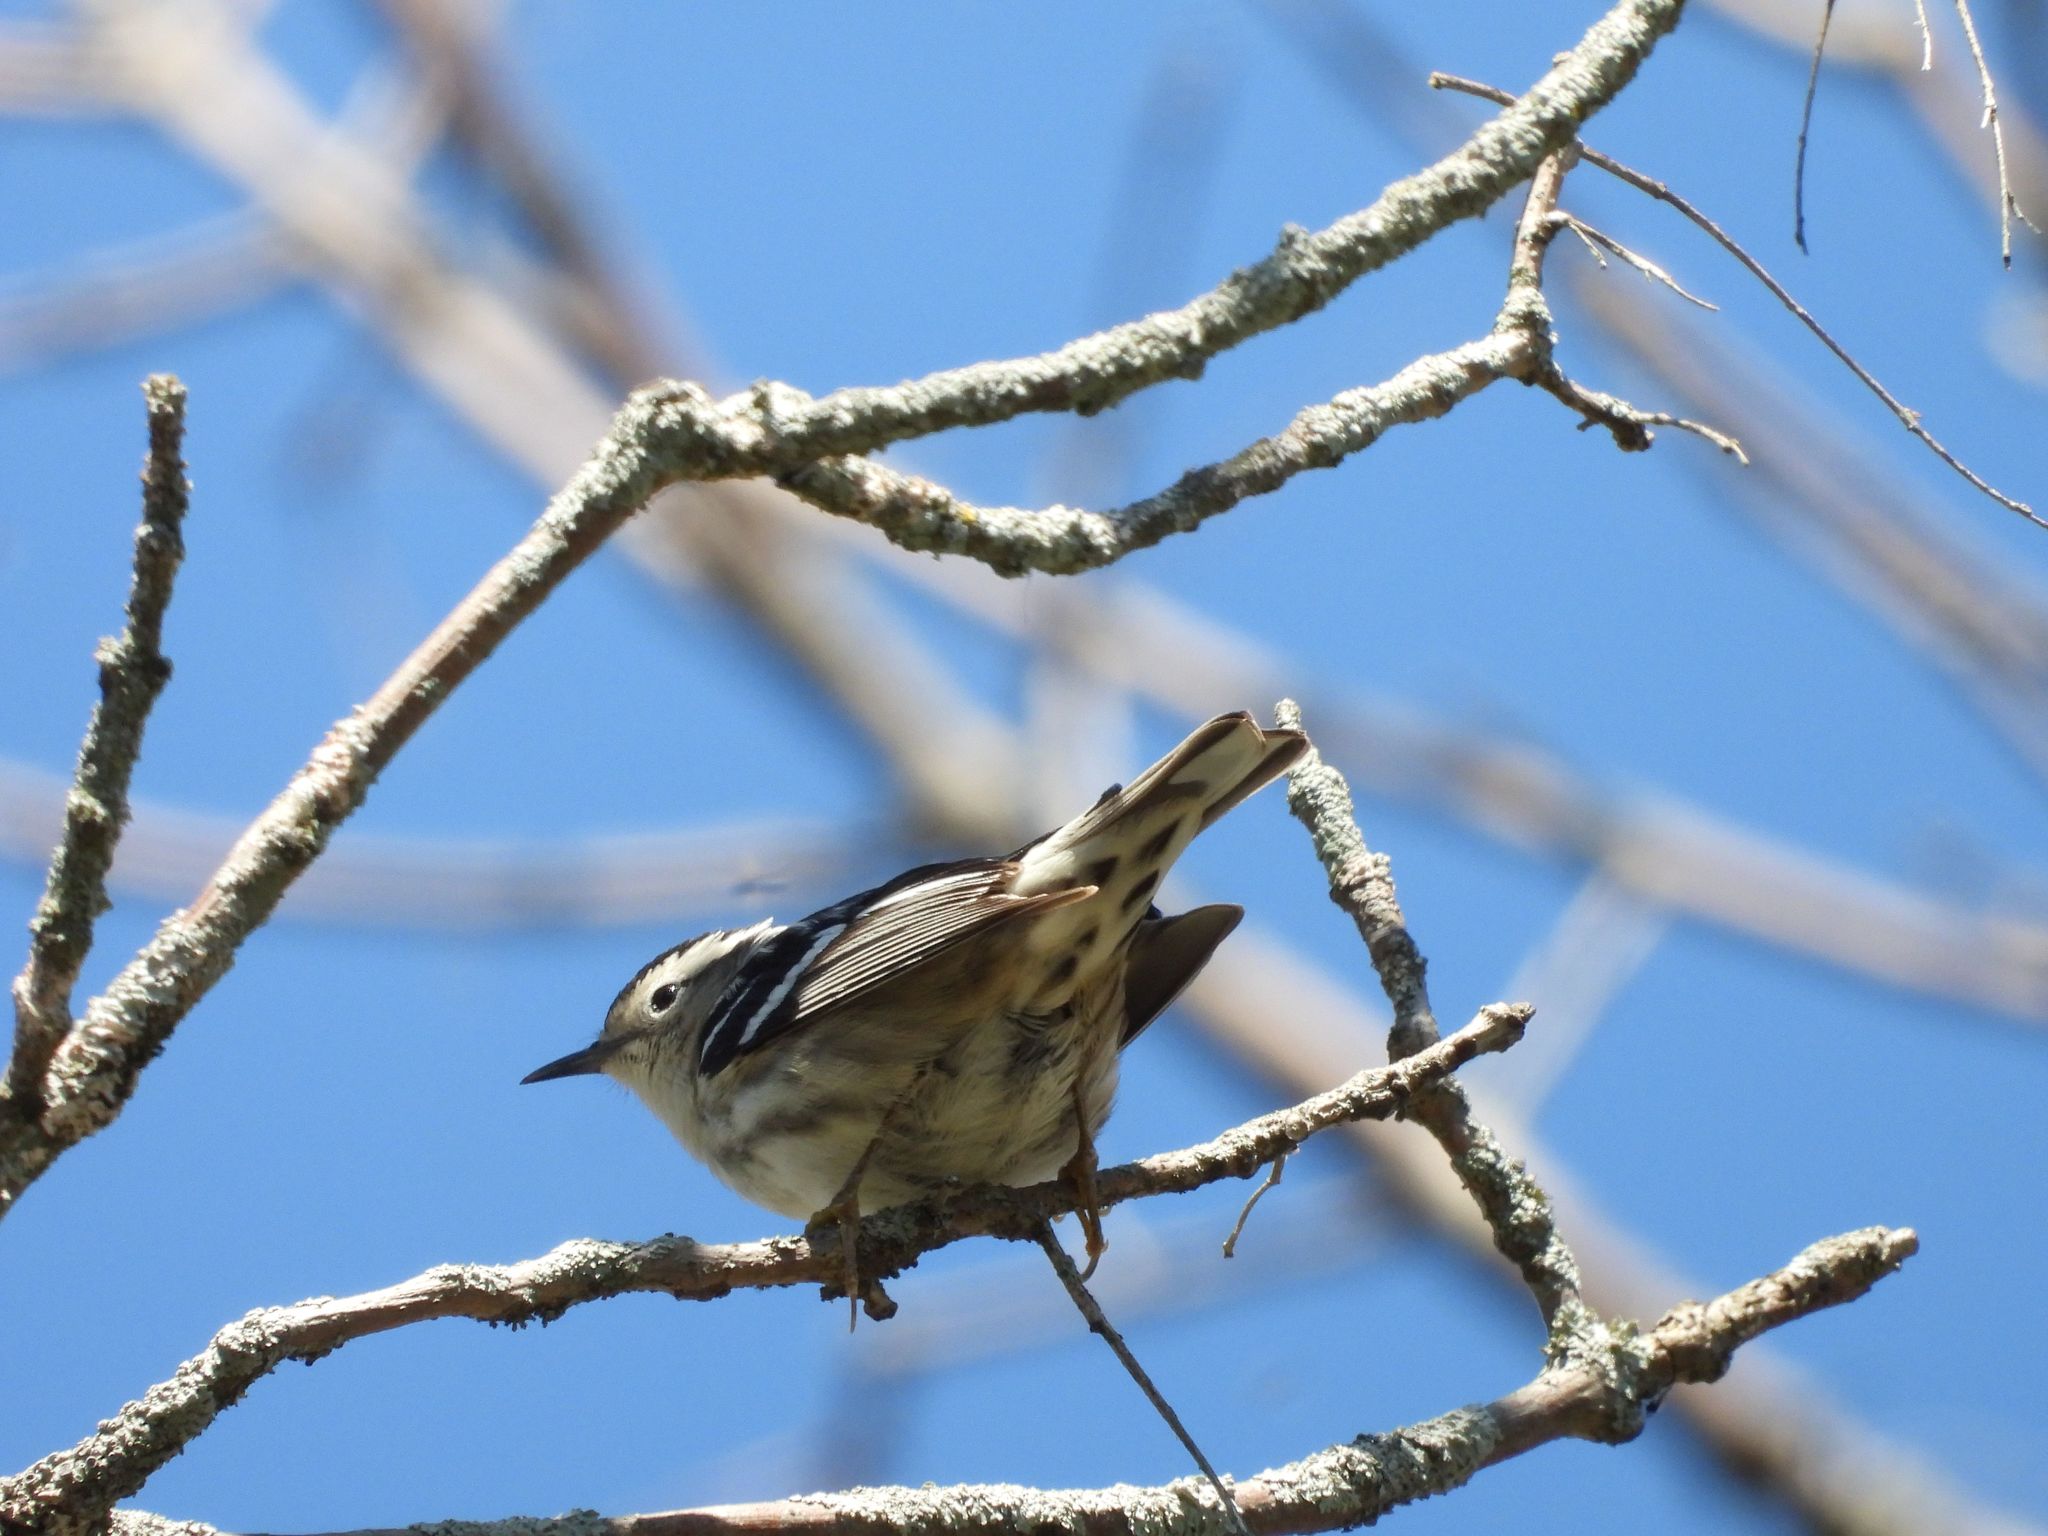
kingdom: Animalia
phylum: Chordata
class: Aves
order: Passeriformes
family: Parulidae
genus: Mniotilta
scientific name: Mniotilta varia
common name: Black-and-white warbler
